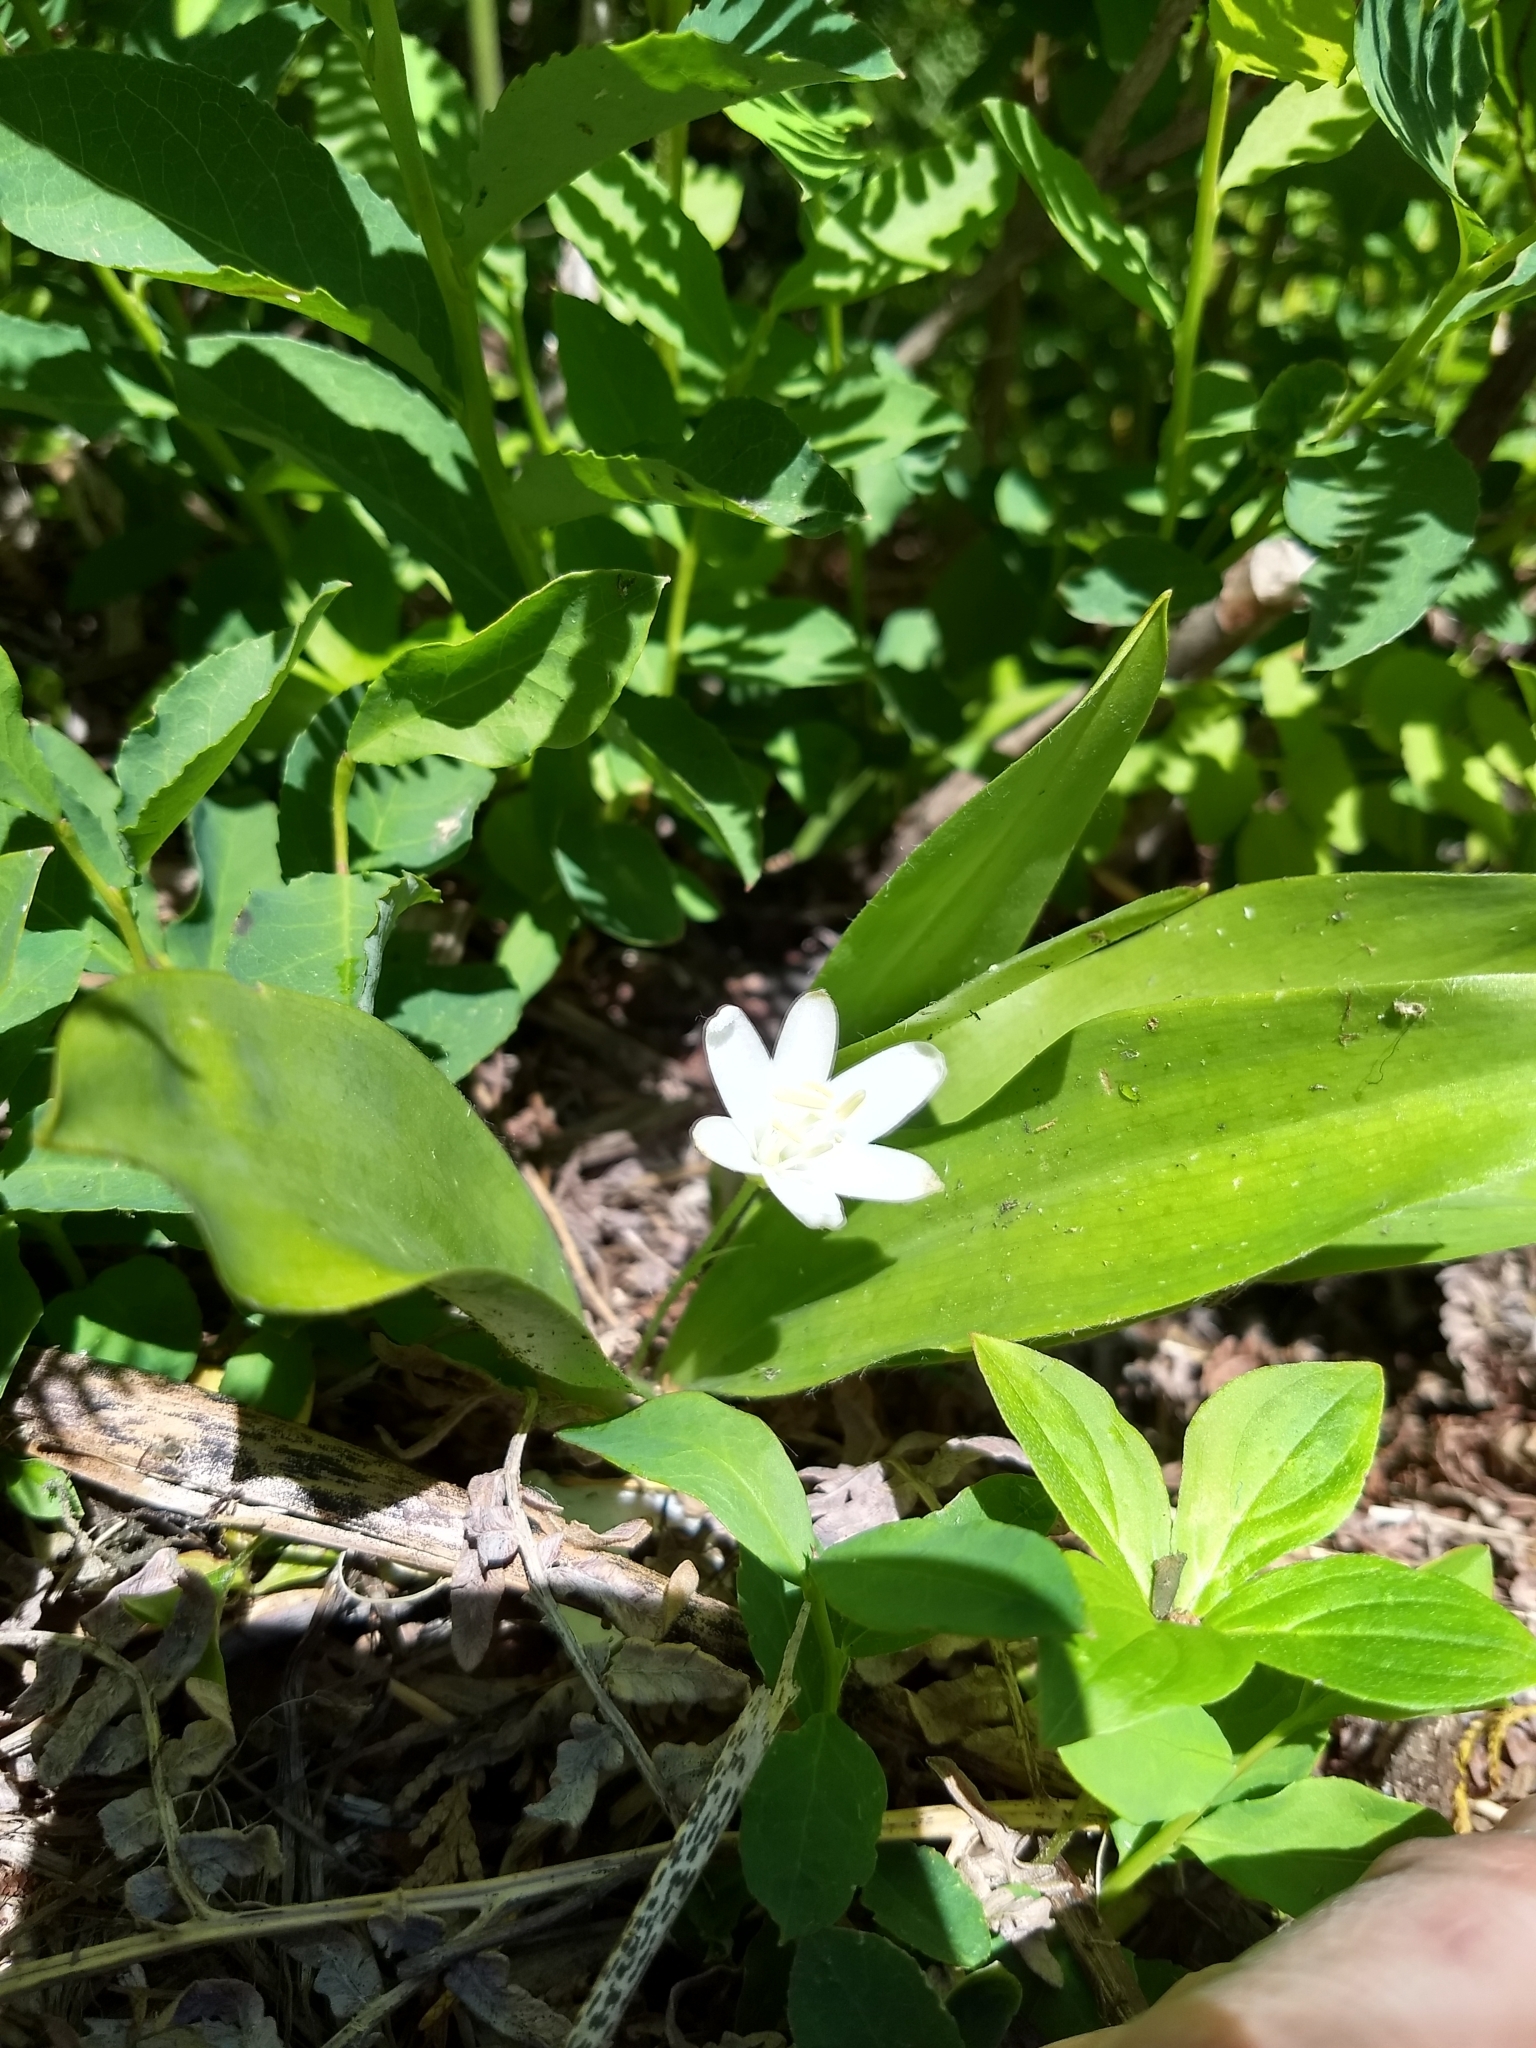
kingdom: Plantae
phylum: Tracheophyta
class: Liliopsida
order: Liliales
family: Liliaceae
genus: Clintonia
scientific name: Clintonia uniflora
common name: Queen's cup
